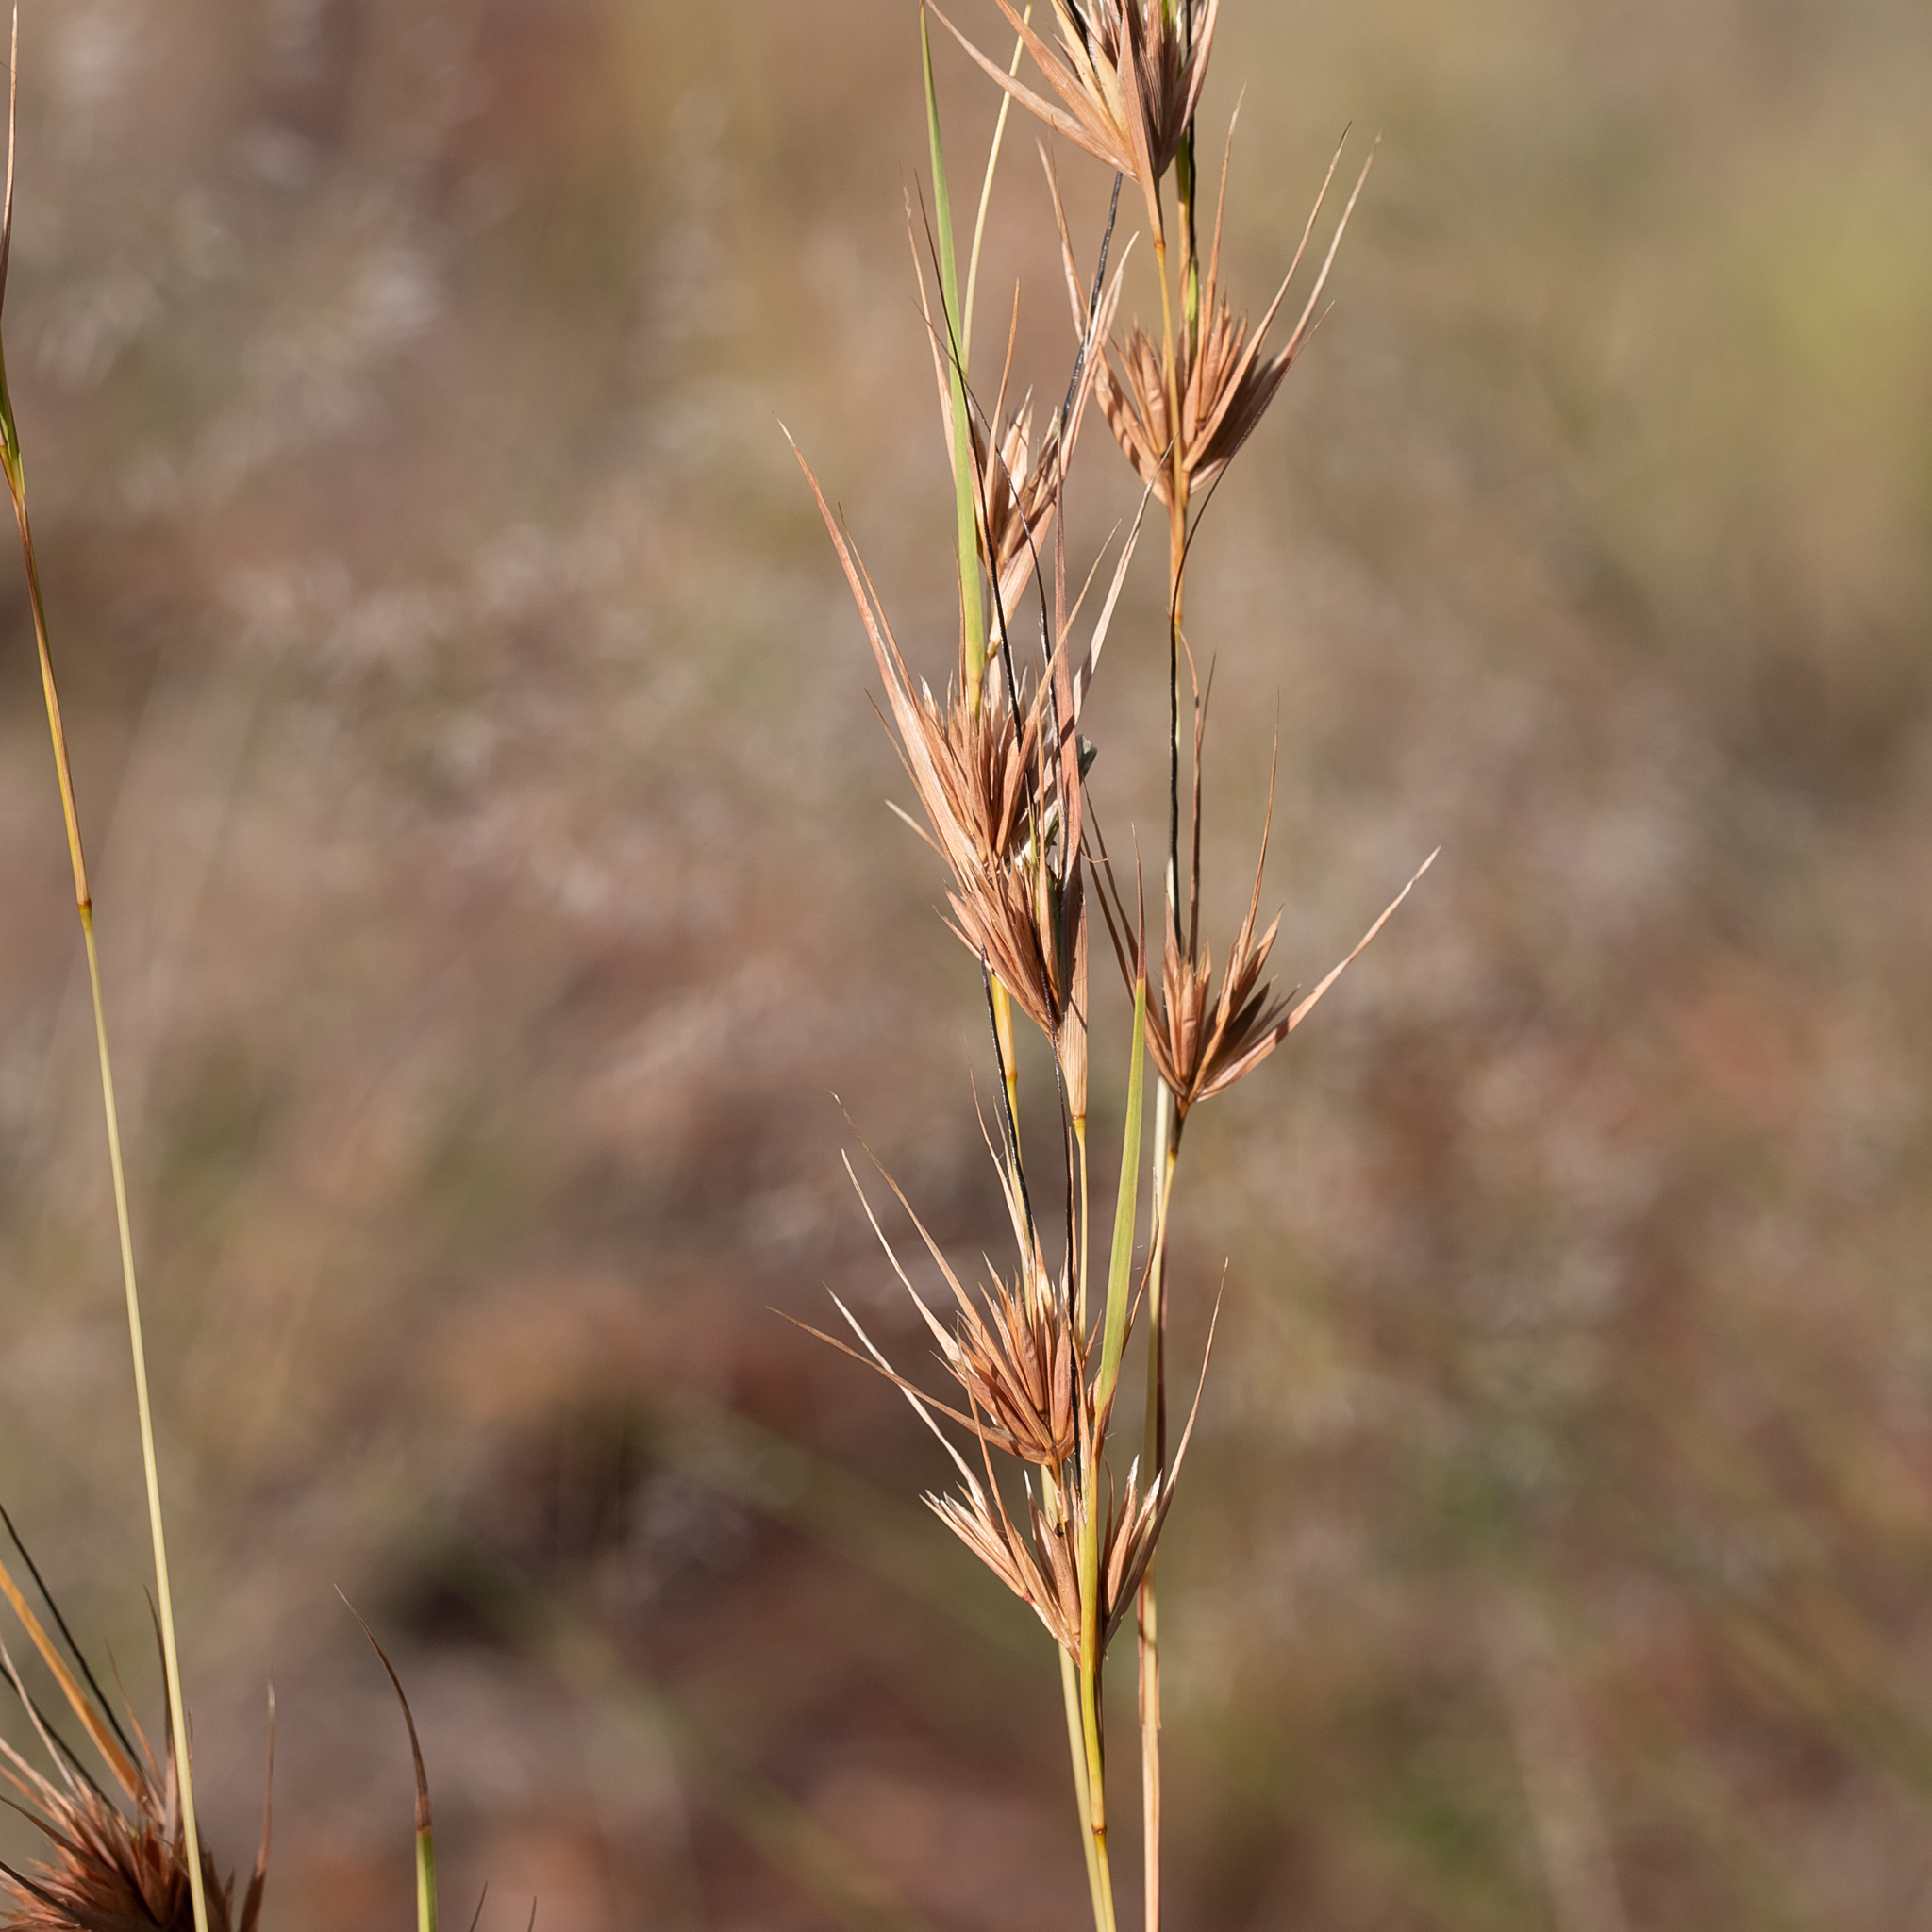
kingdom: Plantae
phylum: Tracheophyta
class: Liliopsida
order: Poales
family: Poaceae
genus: Themeda
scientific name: Themeda triandra
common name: Kangaroo grass
